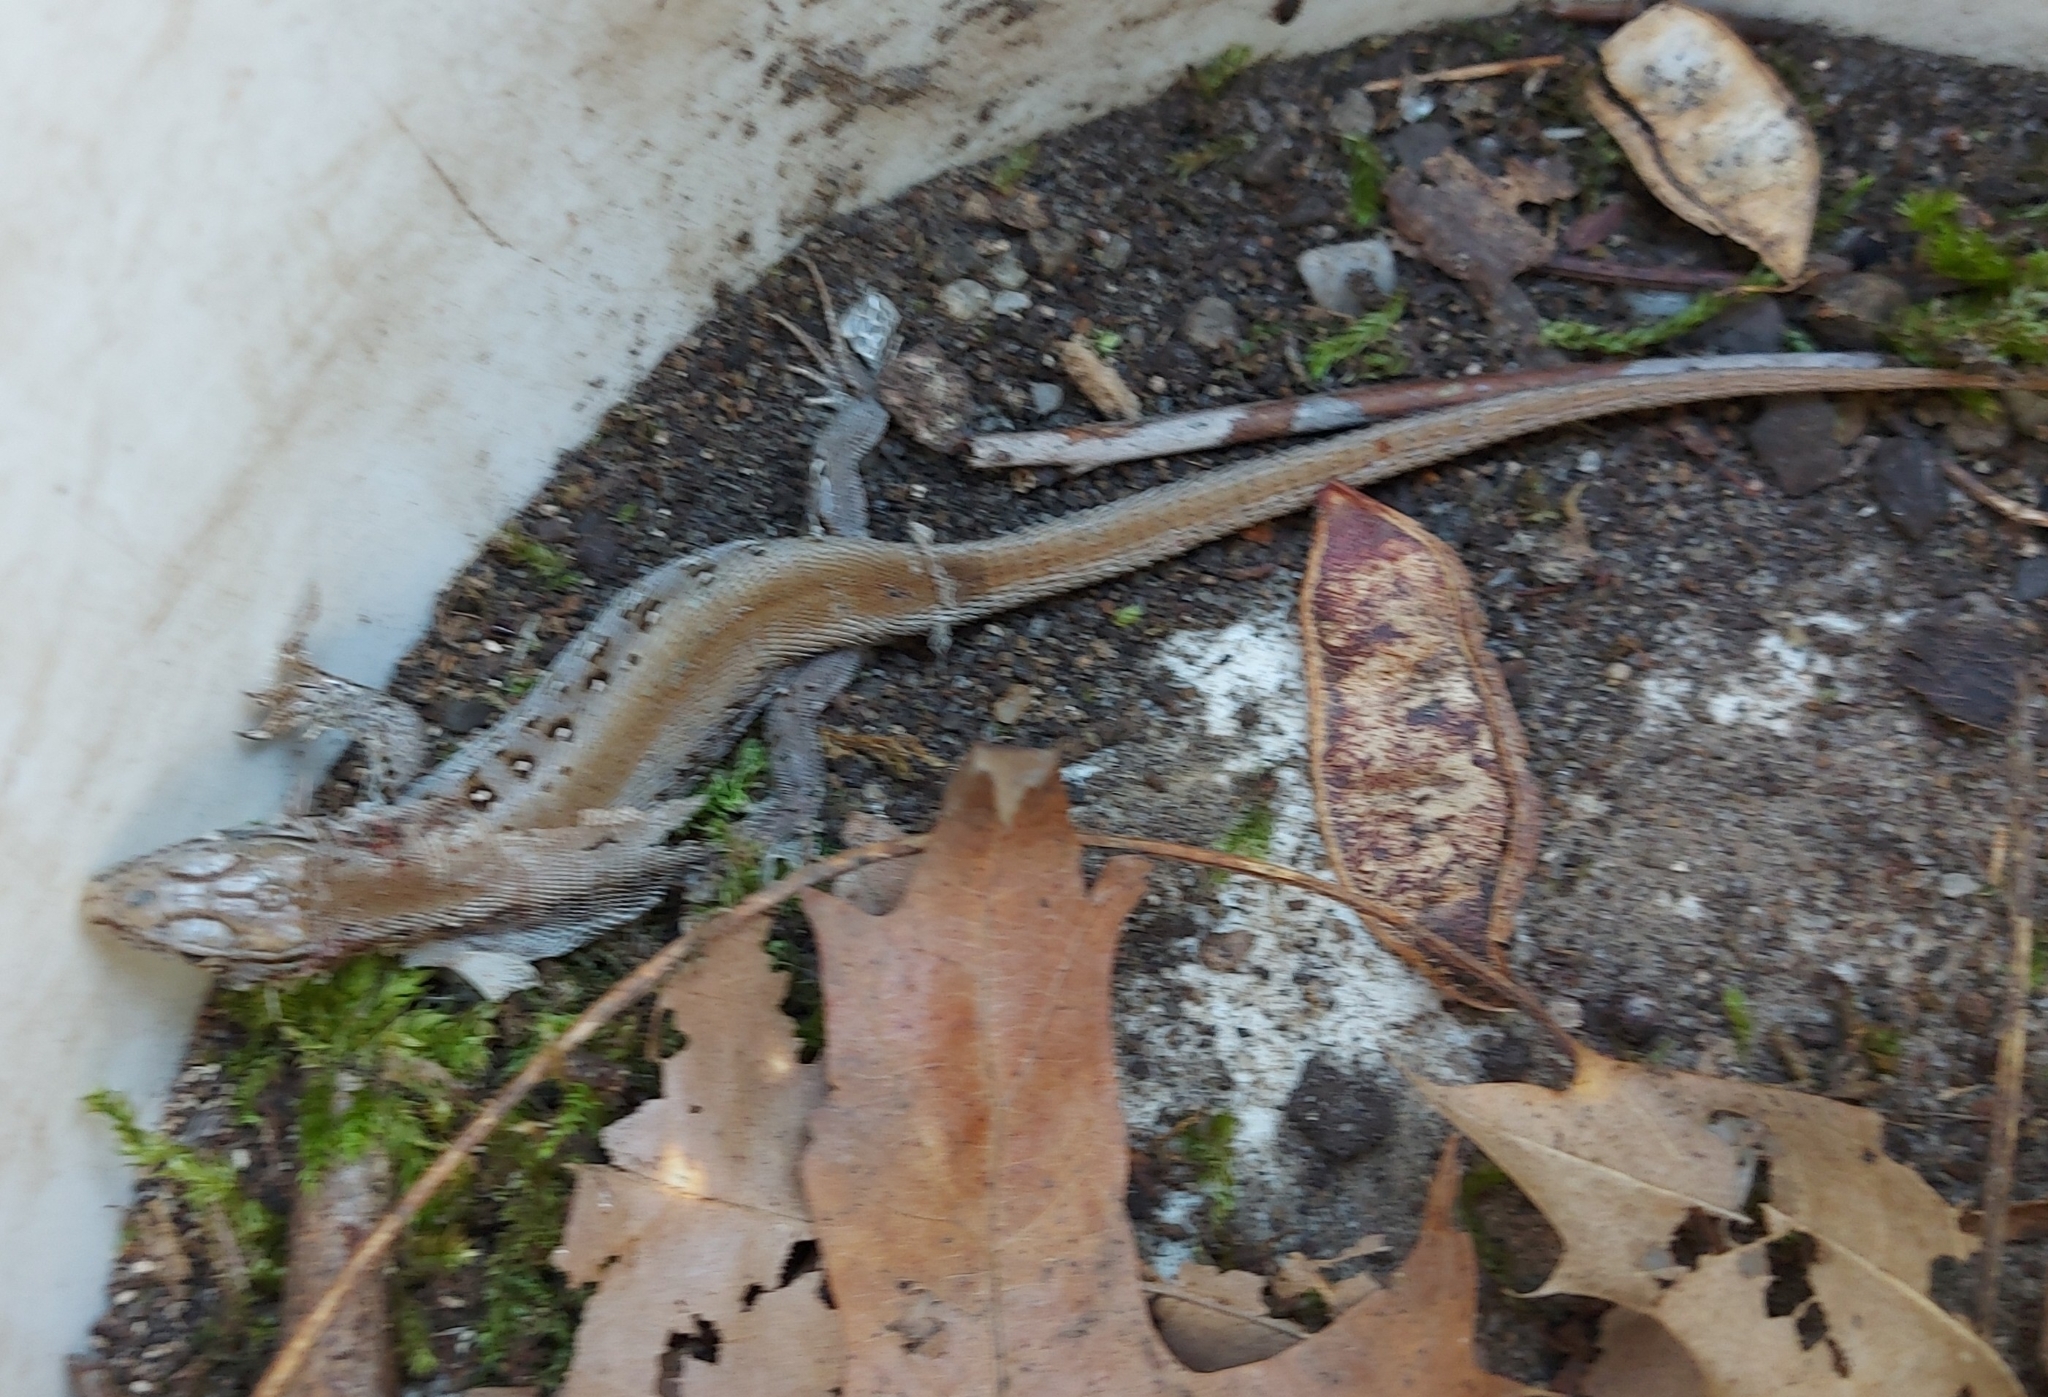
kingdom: Animalia
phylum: Chordata
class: Squamata
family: Lacertidae
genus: Lacerta
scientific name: Lacerta agilis
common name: Sand lizard
